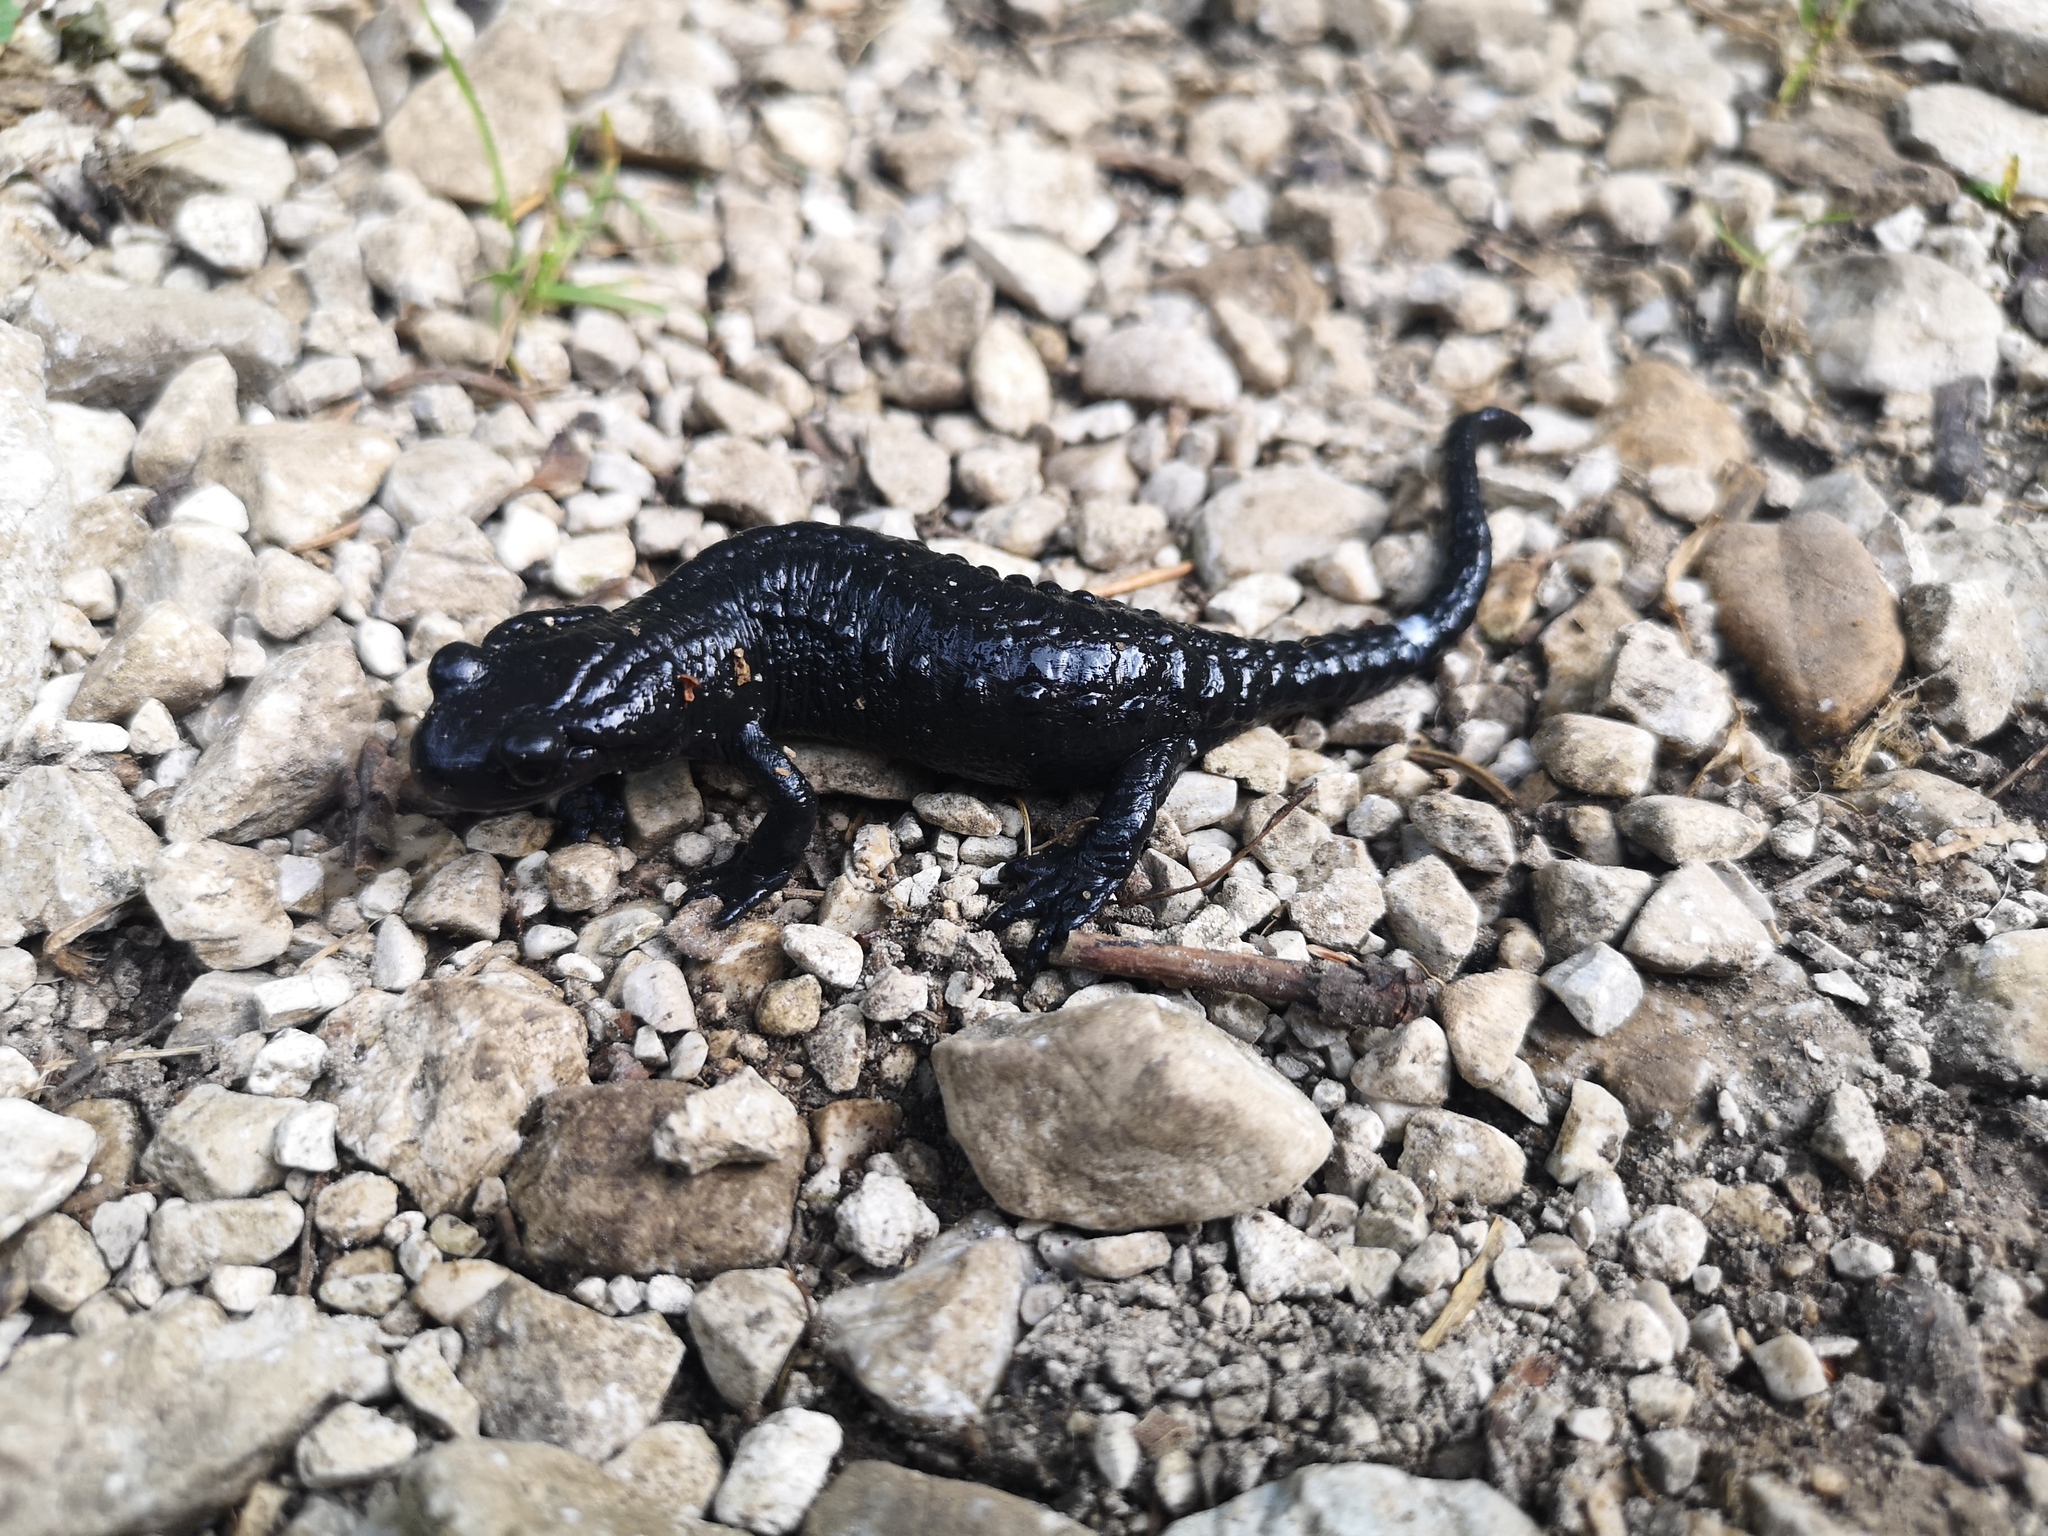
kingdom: Animalia
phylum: Chordata
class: Amphibia
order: Caudata
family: Salamandridae
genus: Salamandra
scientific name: Salamandra atra
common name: Alpine salamander
